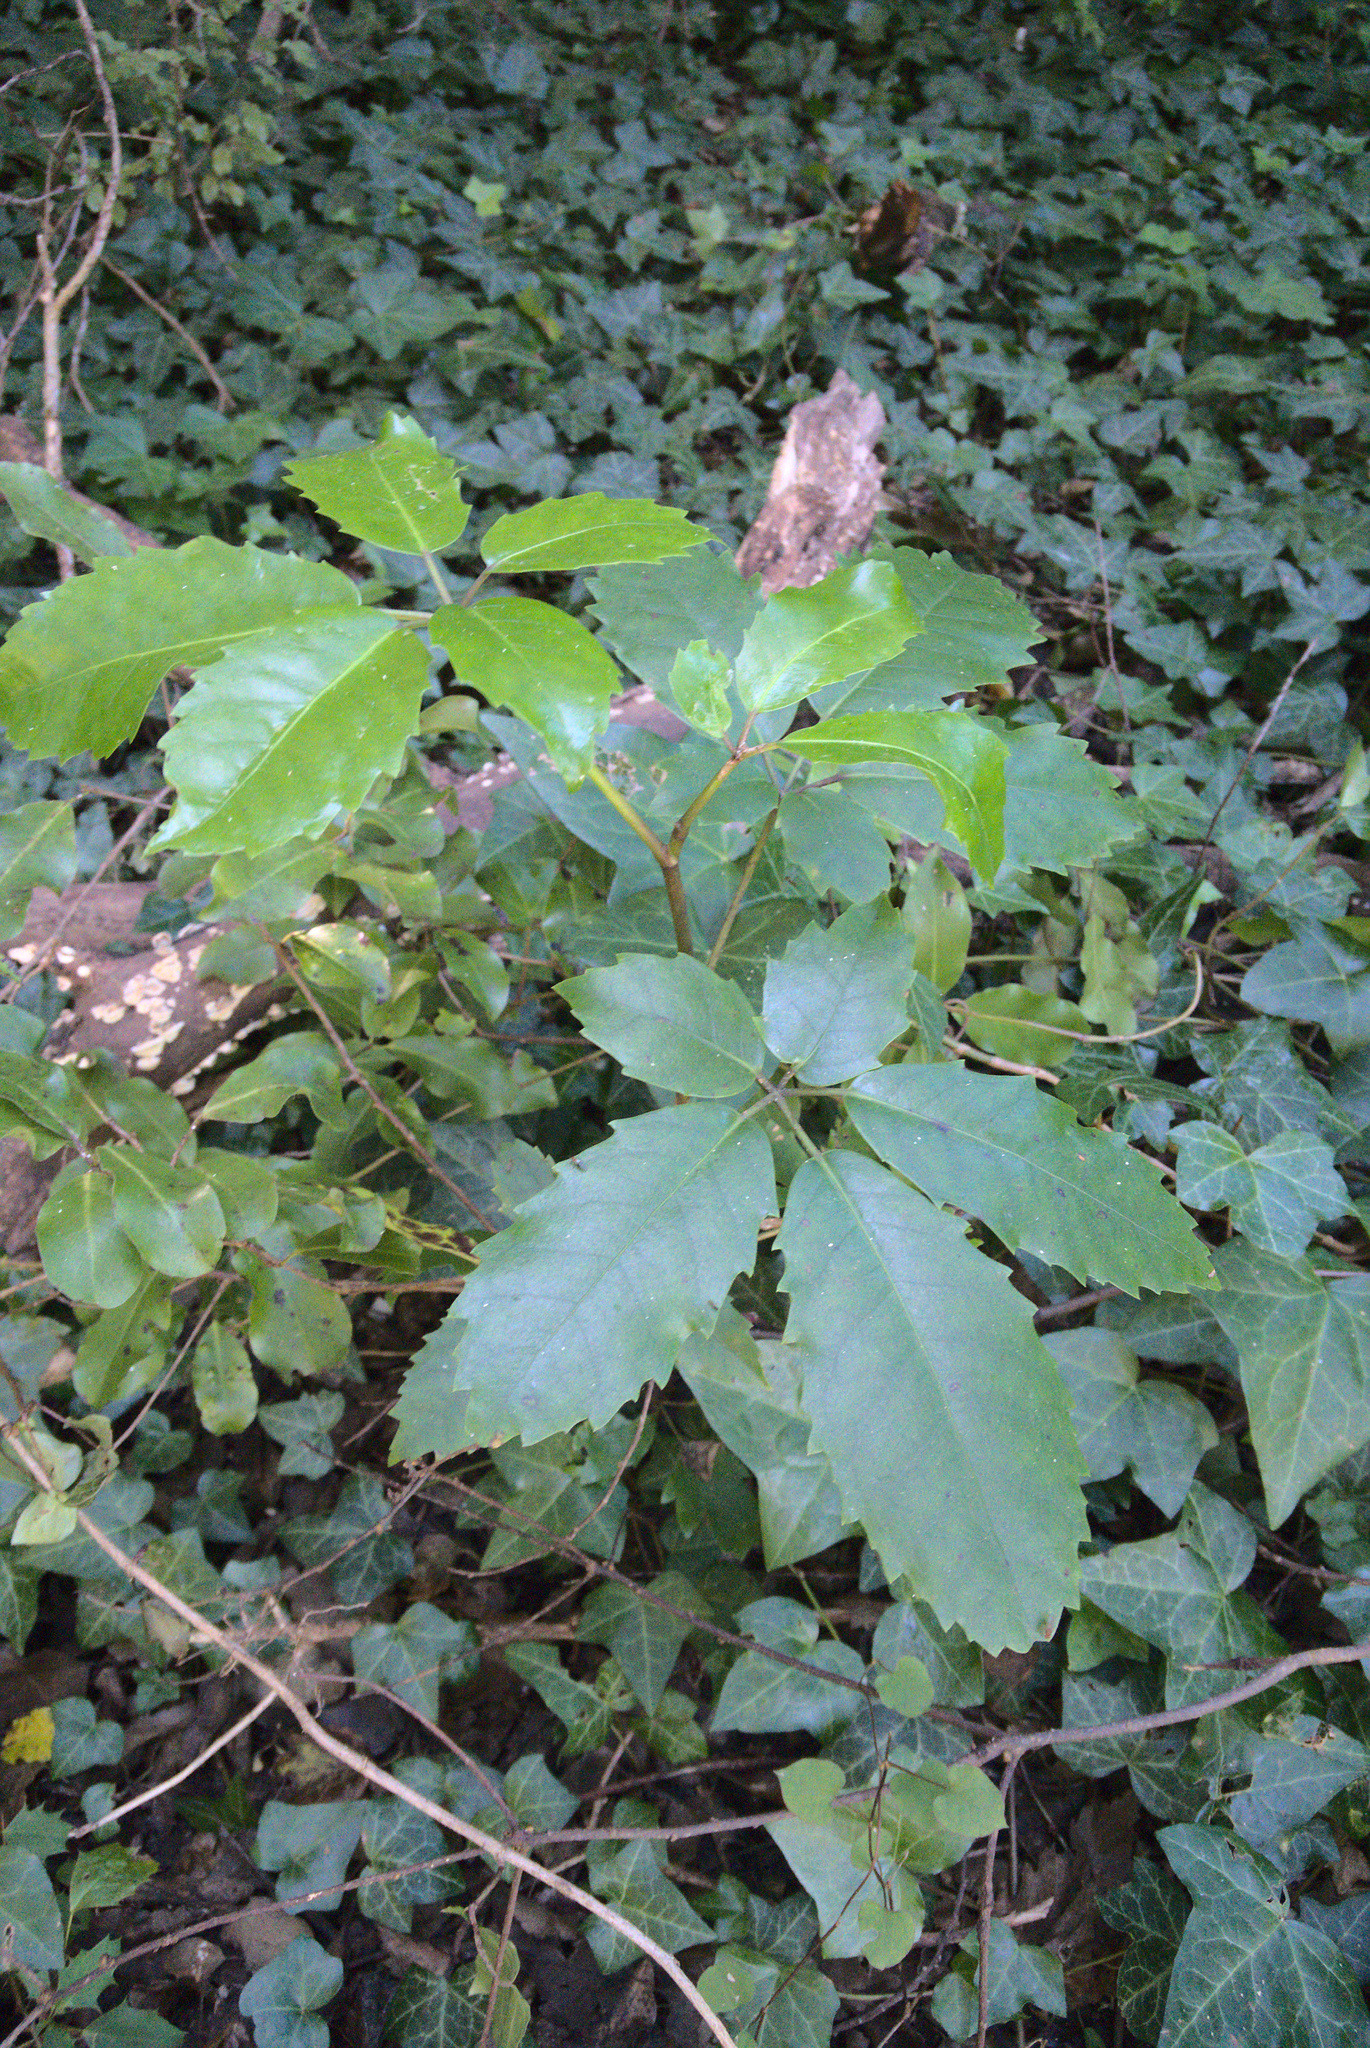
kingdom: Plantae
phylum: Tracheophyta
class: Magnoliopsida
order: Apiales
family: Araliaceae
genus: Neopanax
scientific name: Neopanax arboreus
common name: Five-fingers
